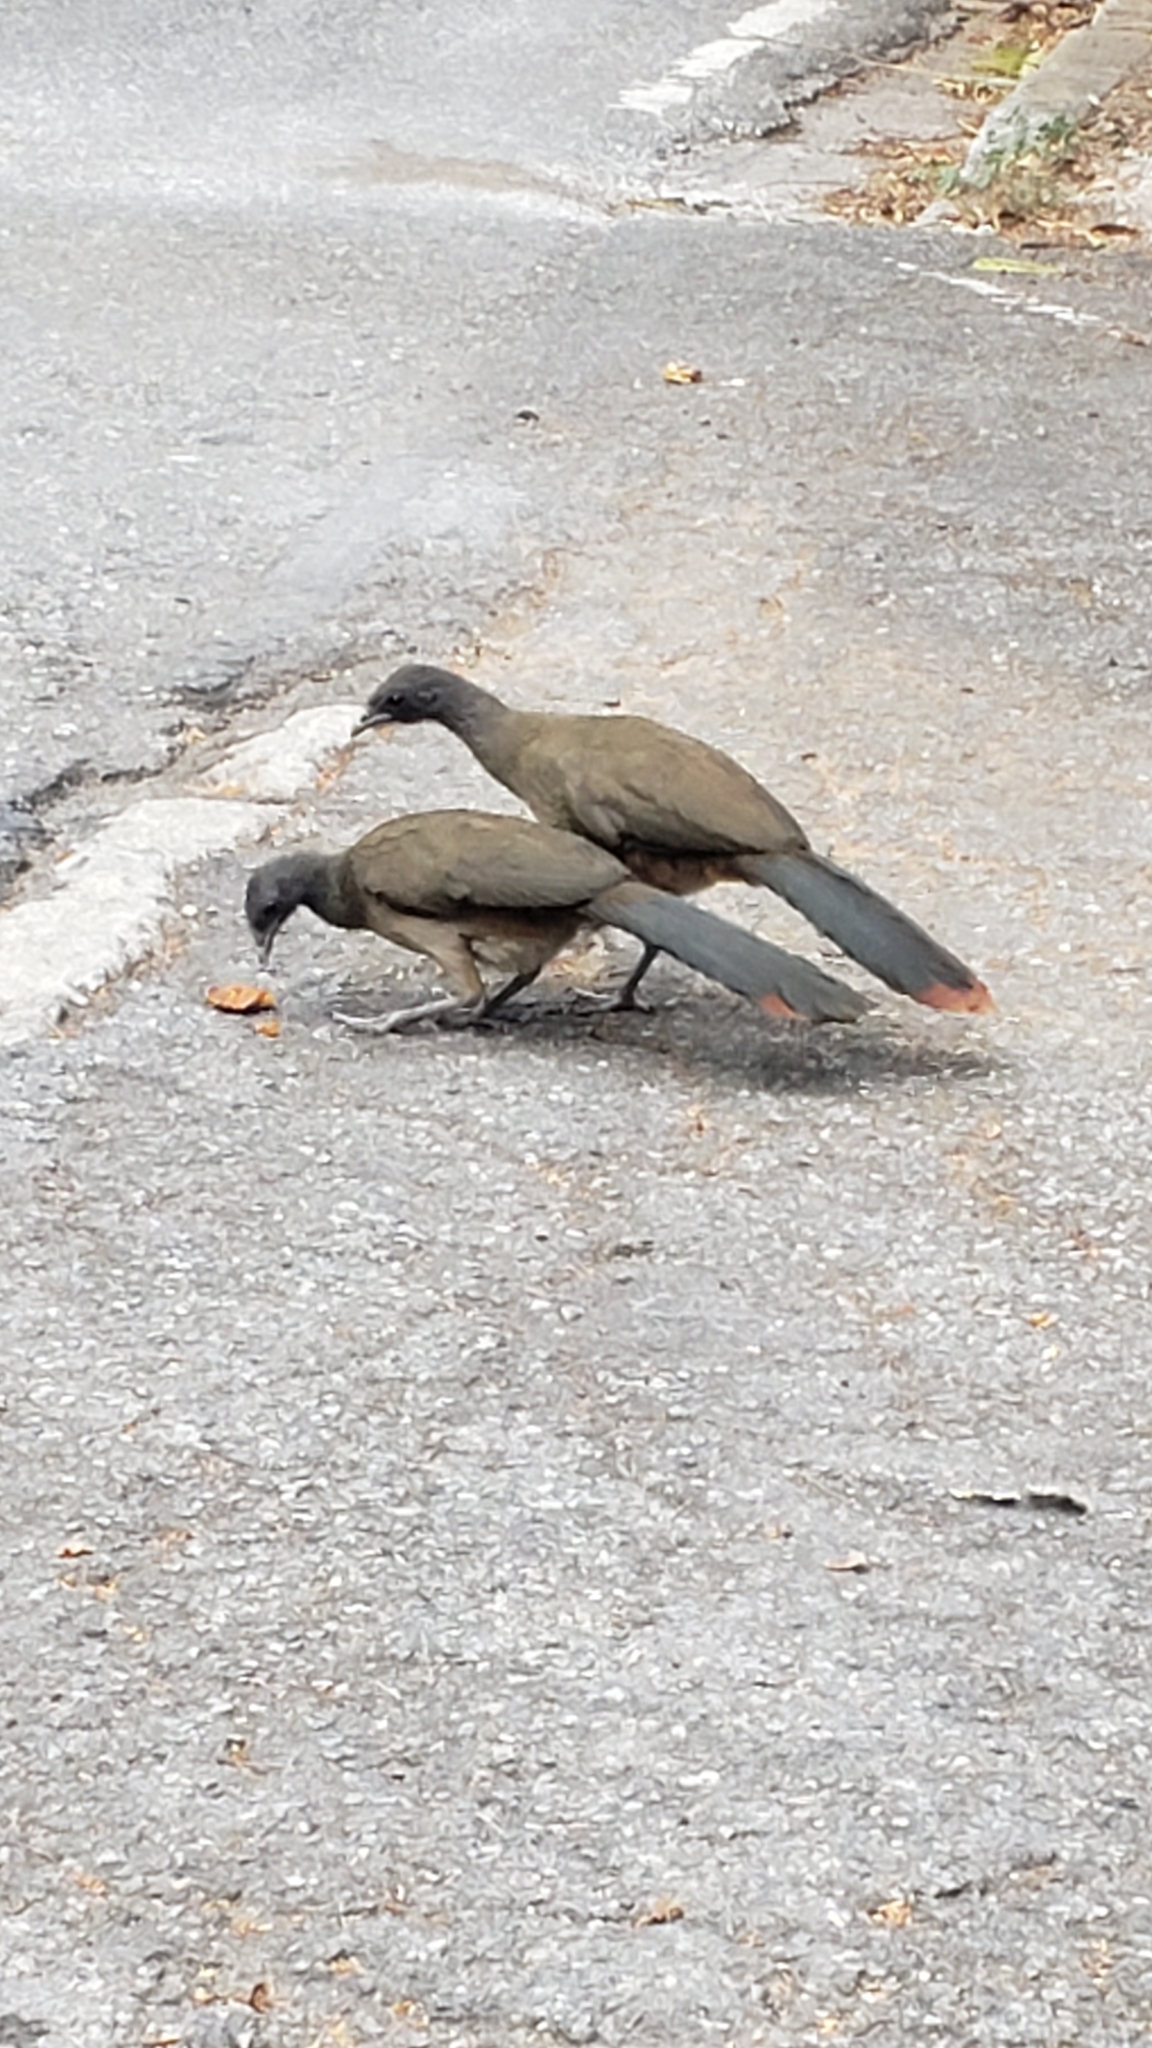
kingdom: Animalia
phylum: Chordata
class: Aves
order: Galliformes
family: Cracidae
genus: Ortalis
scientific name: Ortalis ruficauda
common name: Rufous-vented chachalaca
